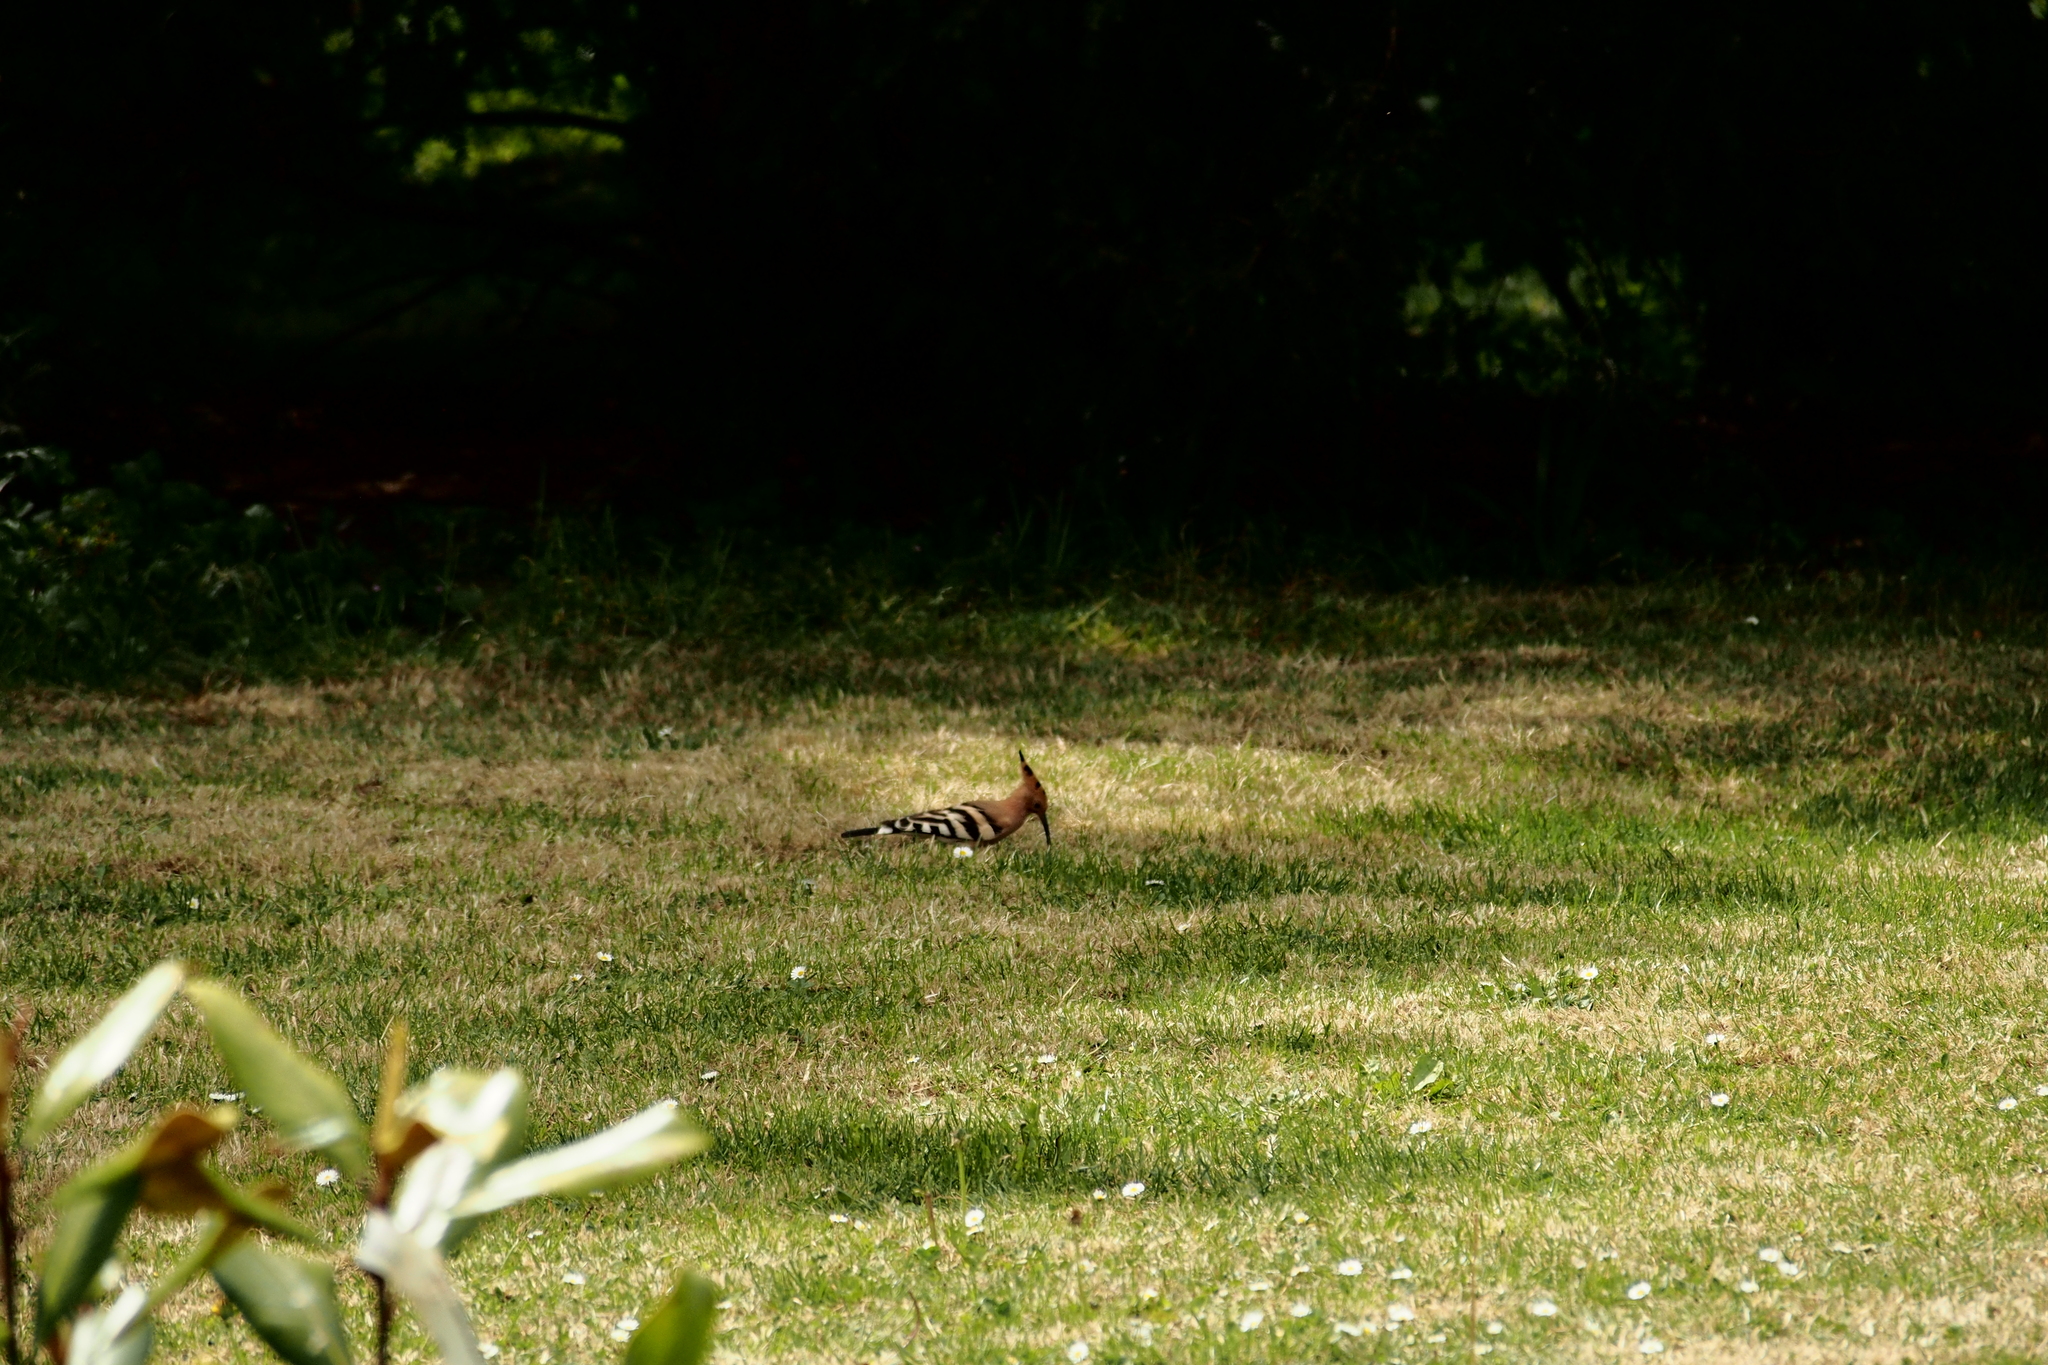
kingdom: Animalia
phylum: Chordata
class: Aves
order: Bucerotiformes
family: Upupidae
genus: Upupa
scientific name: Upupa epops
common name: Eurasian hoopoe
